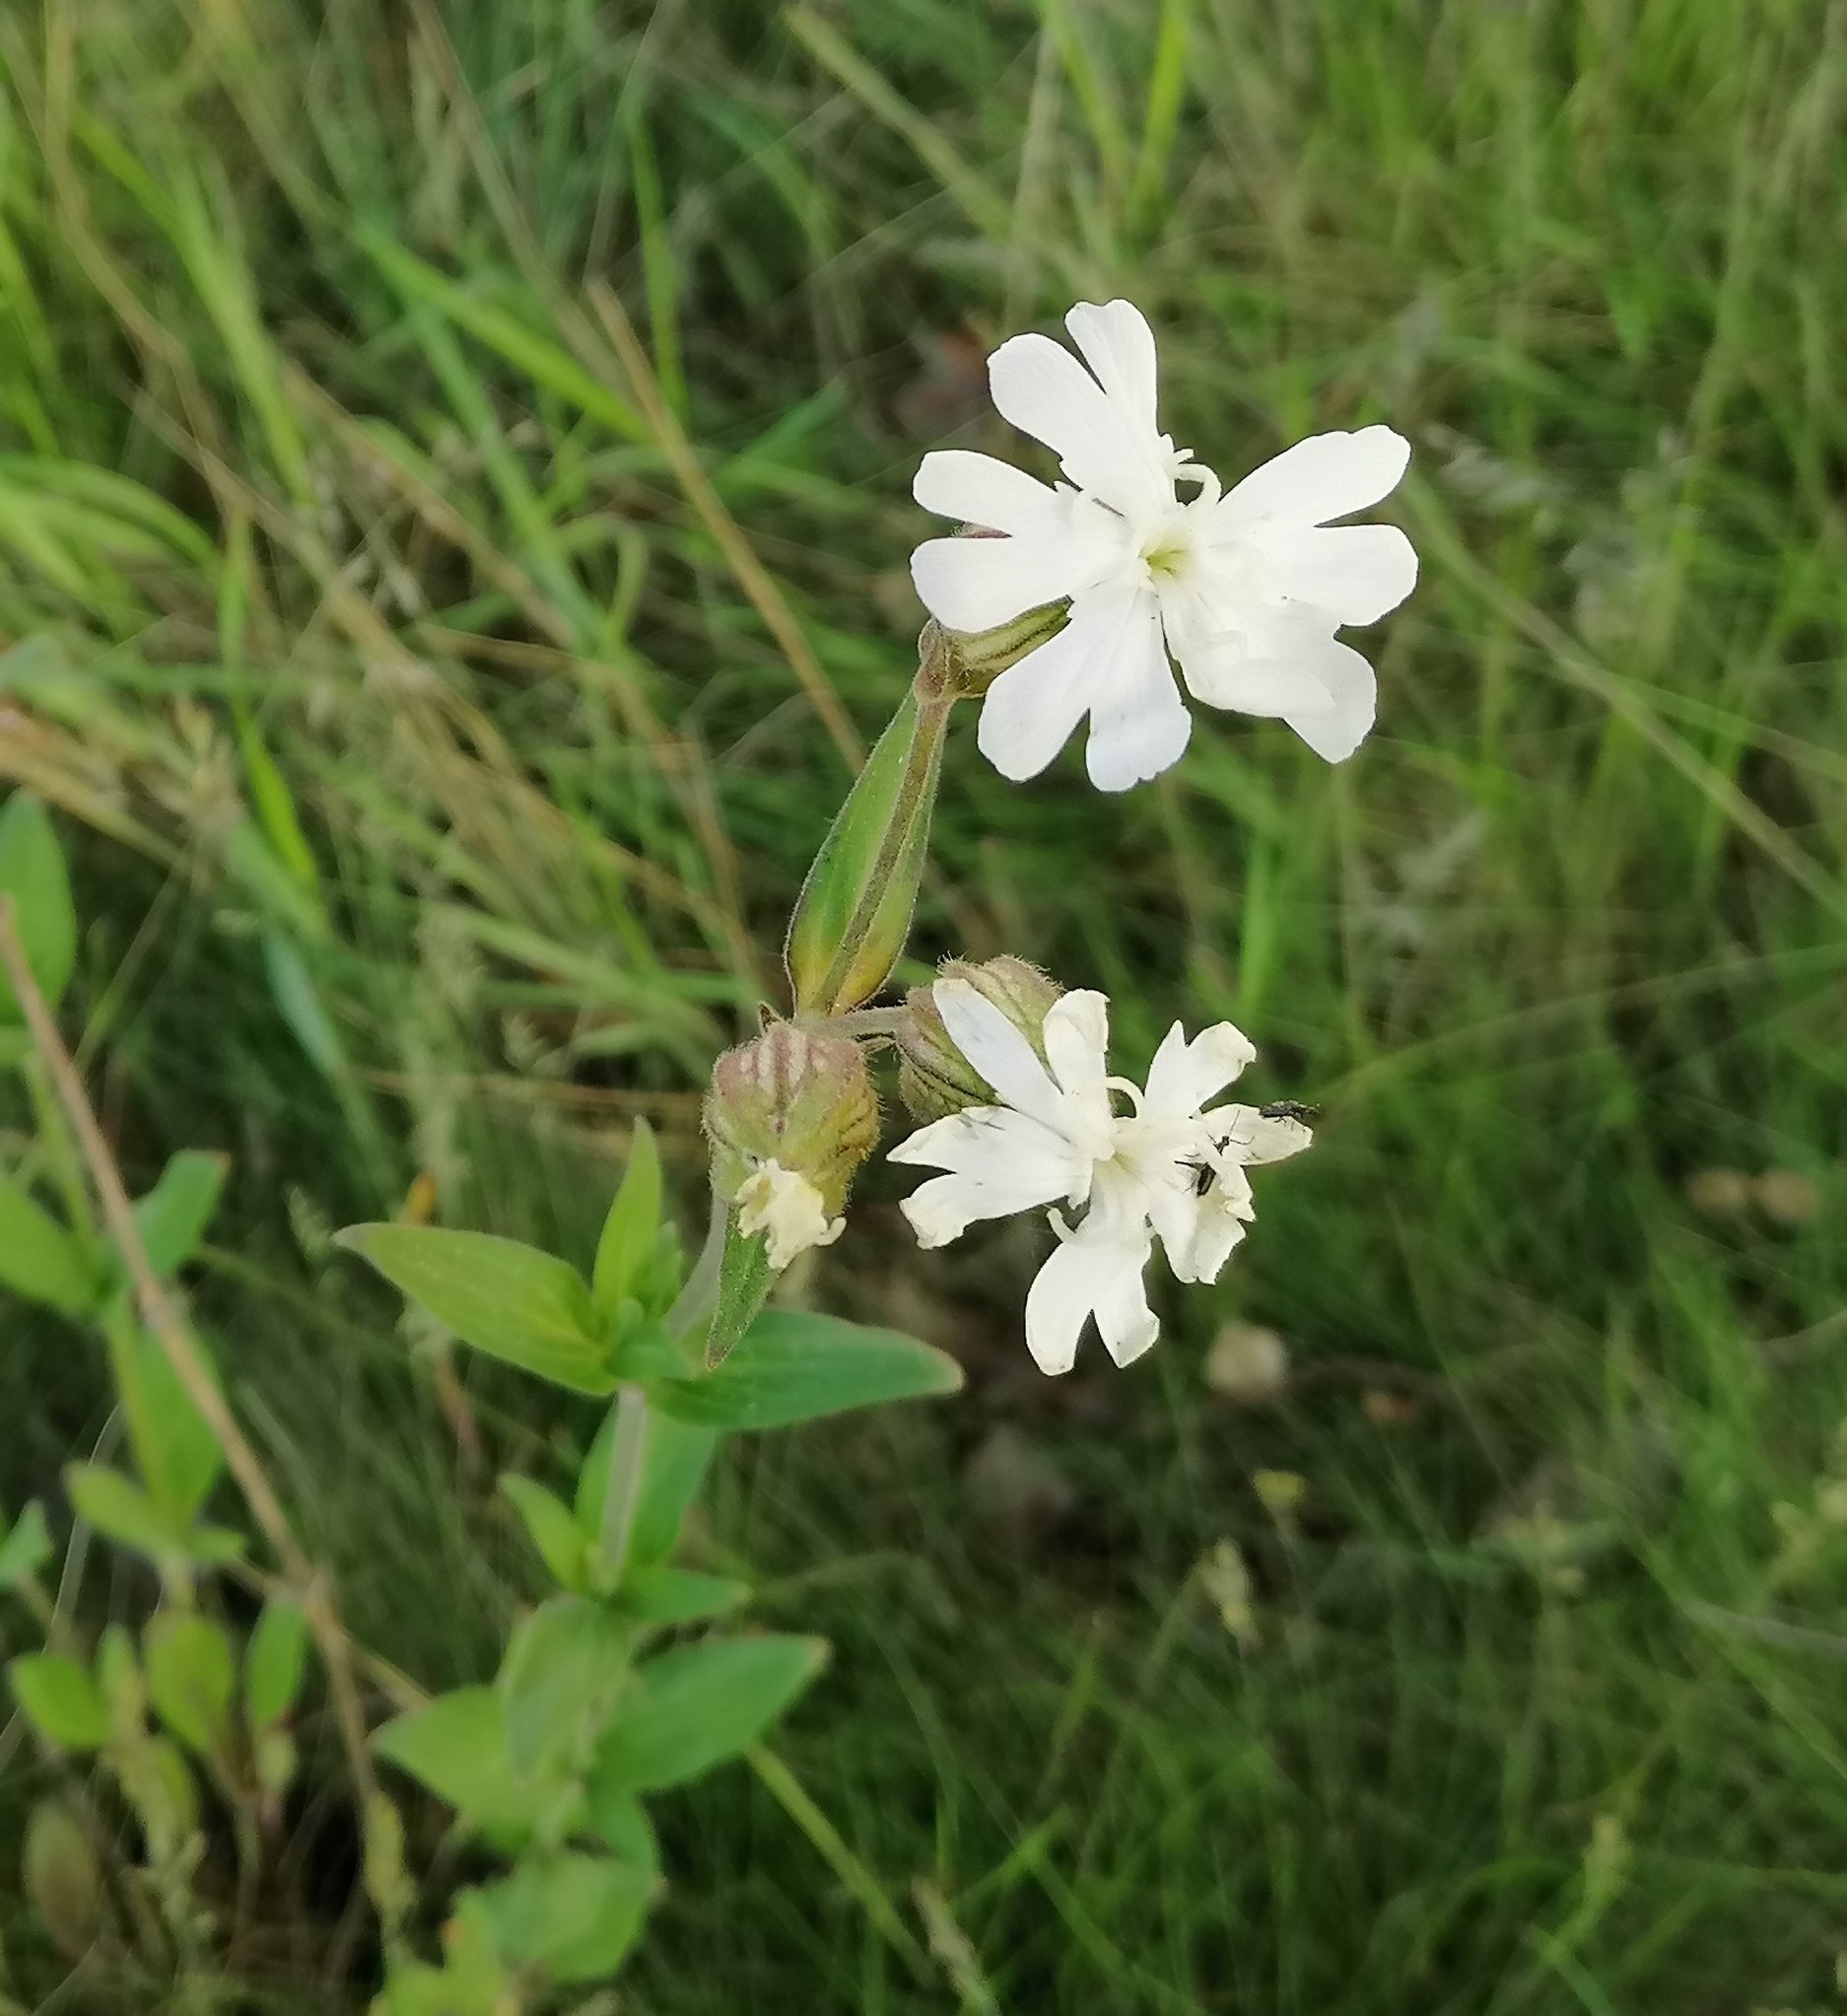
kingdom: Plantae
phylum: Tracheophyta
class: Magnoliopsida
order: Caryophyllales
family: Caryophyllaceae
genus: Silene
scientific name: Silene latifolia
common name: White campion
